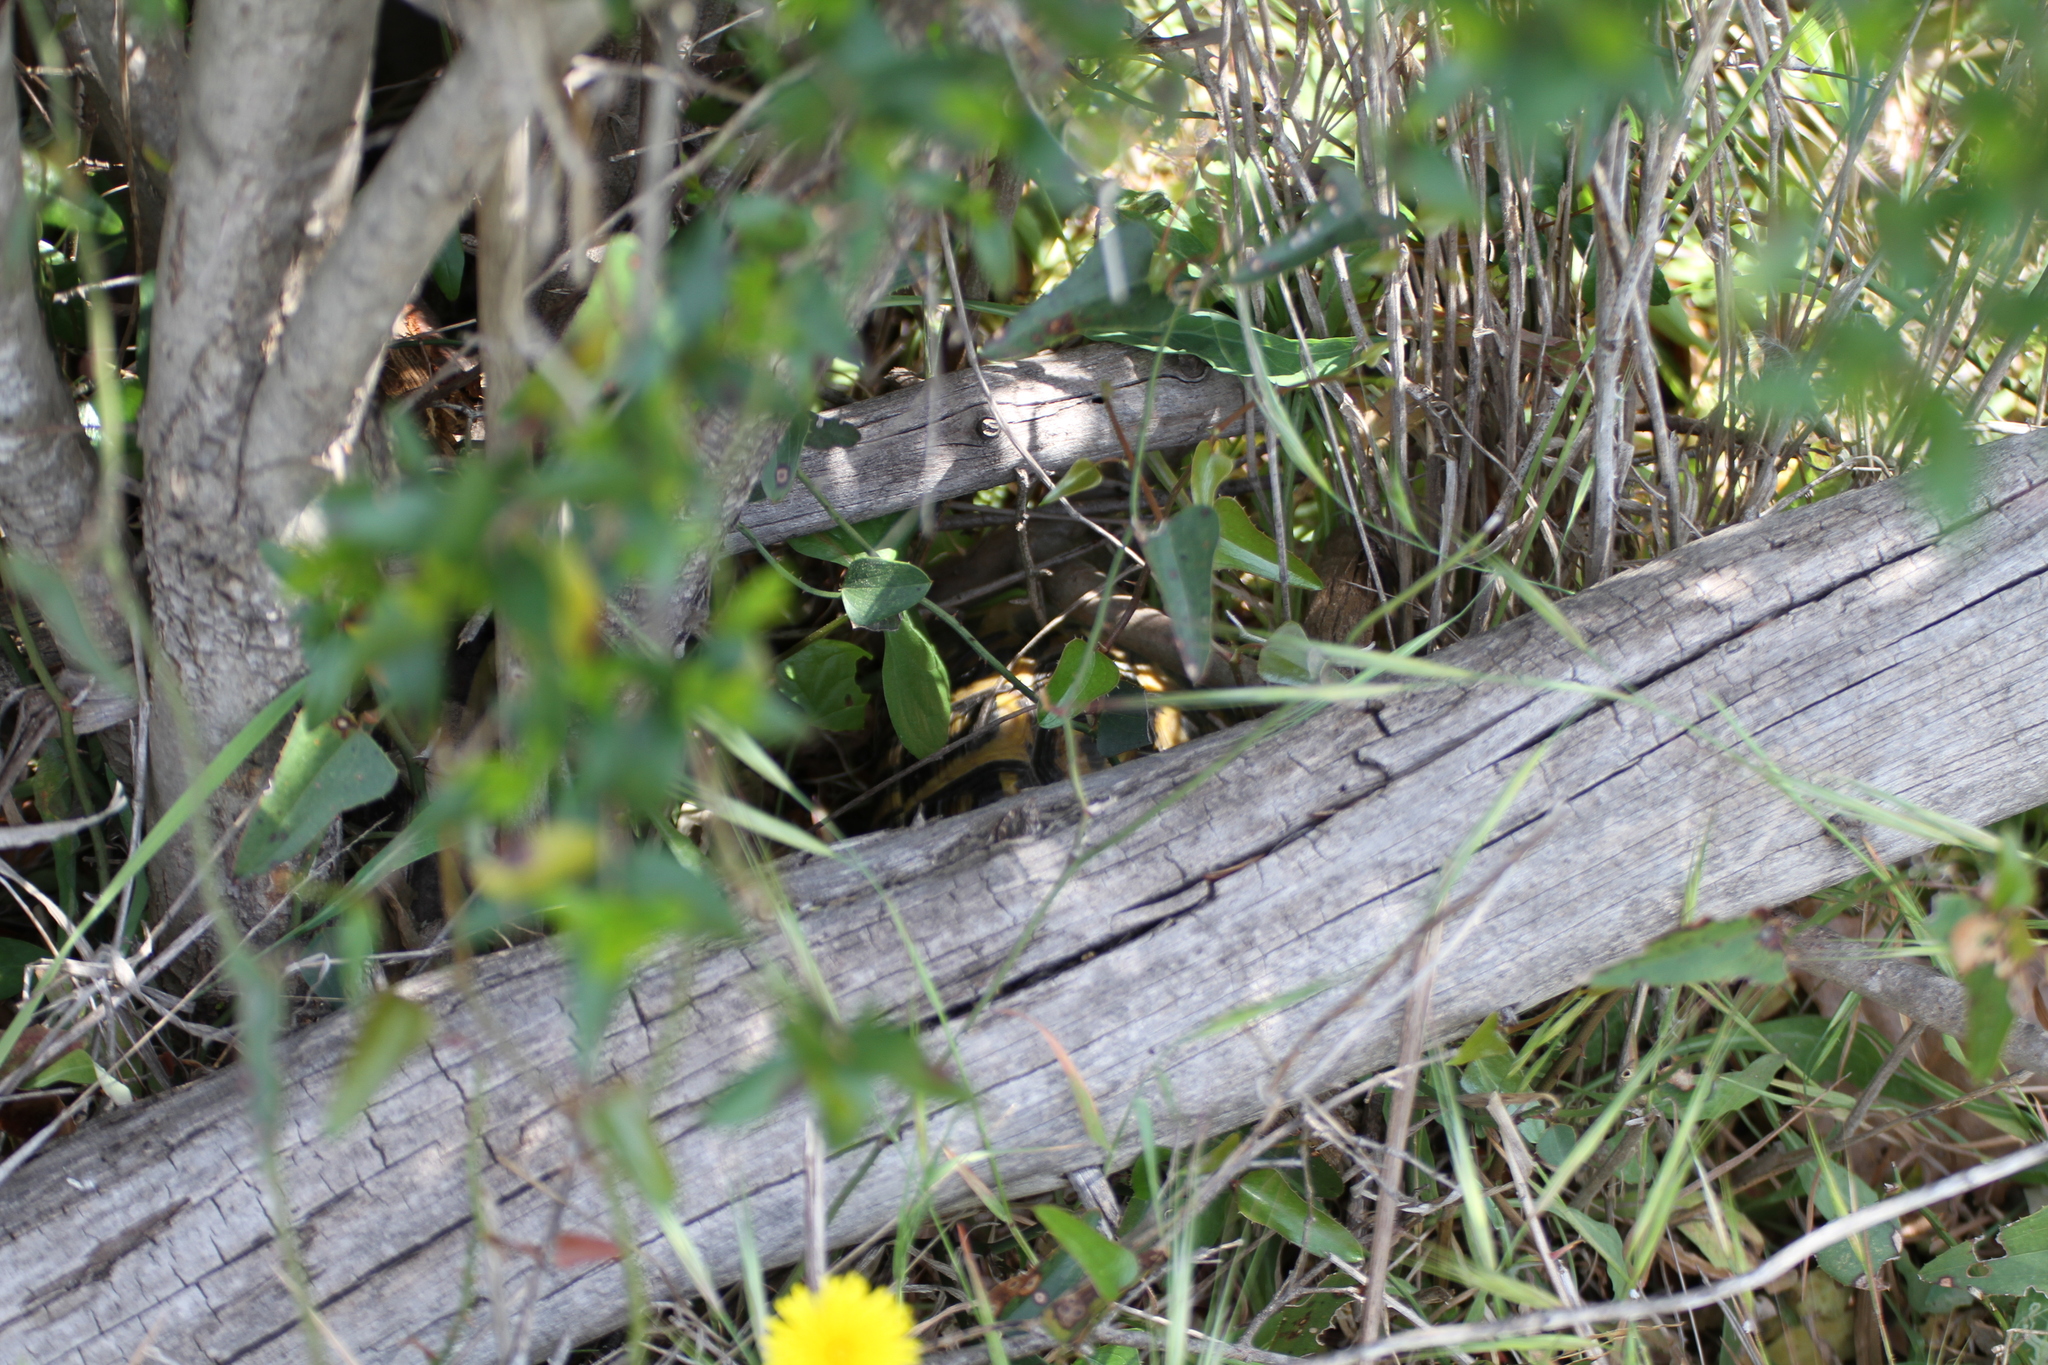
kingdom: Animalia
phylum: Chordata
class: Testudines
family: Testudinidae
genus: Testudo
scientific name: Testudo hermanni
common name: Hermann's tortoise
